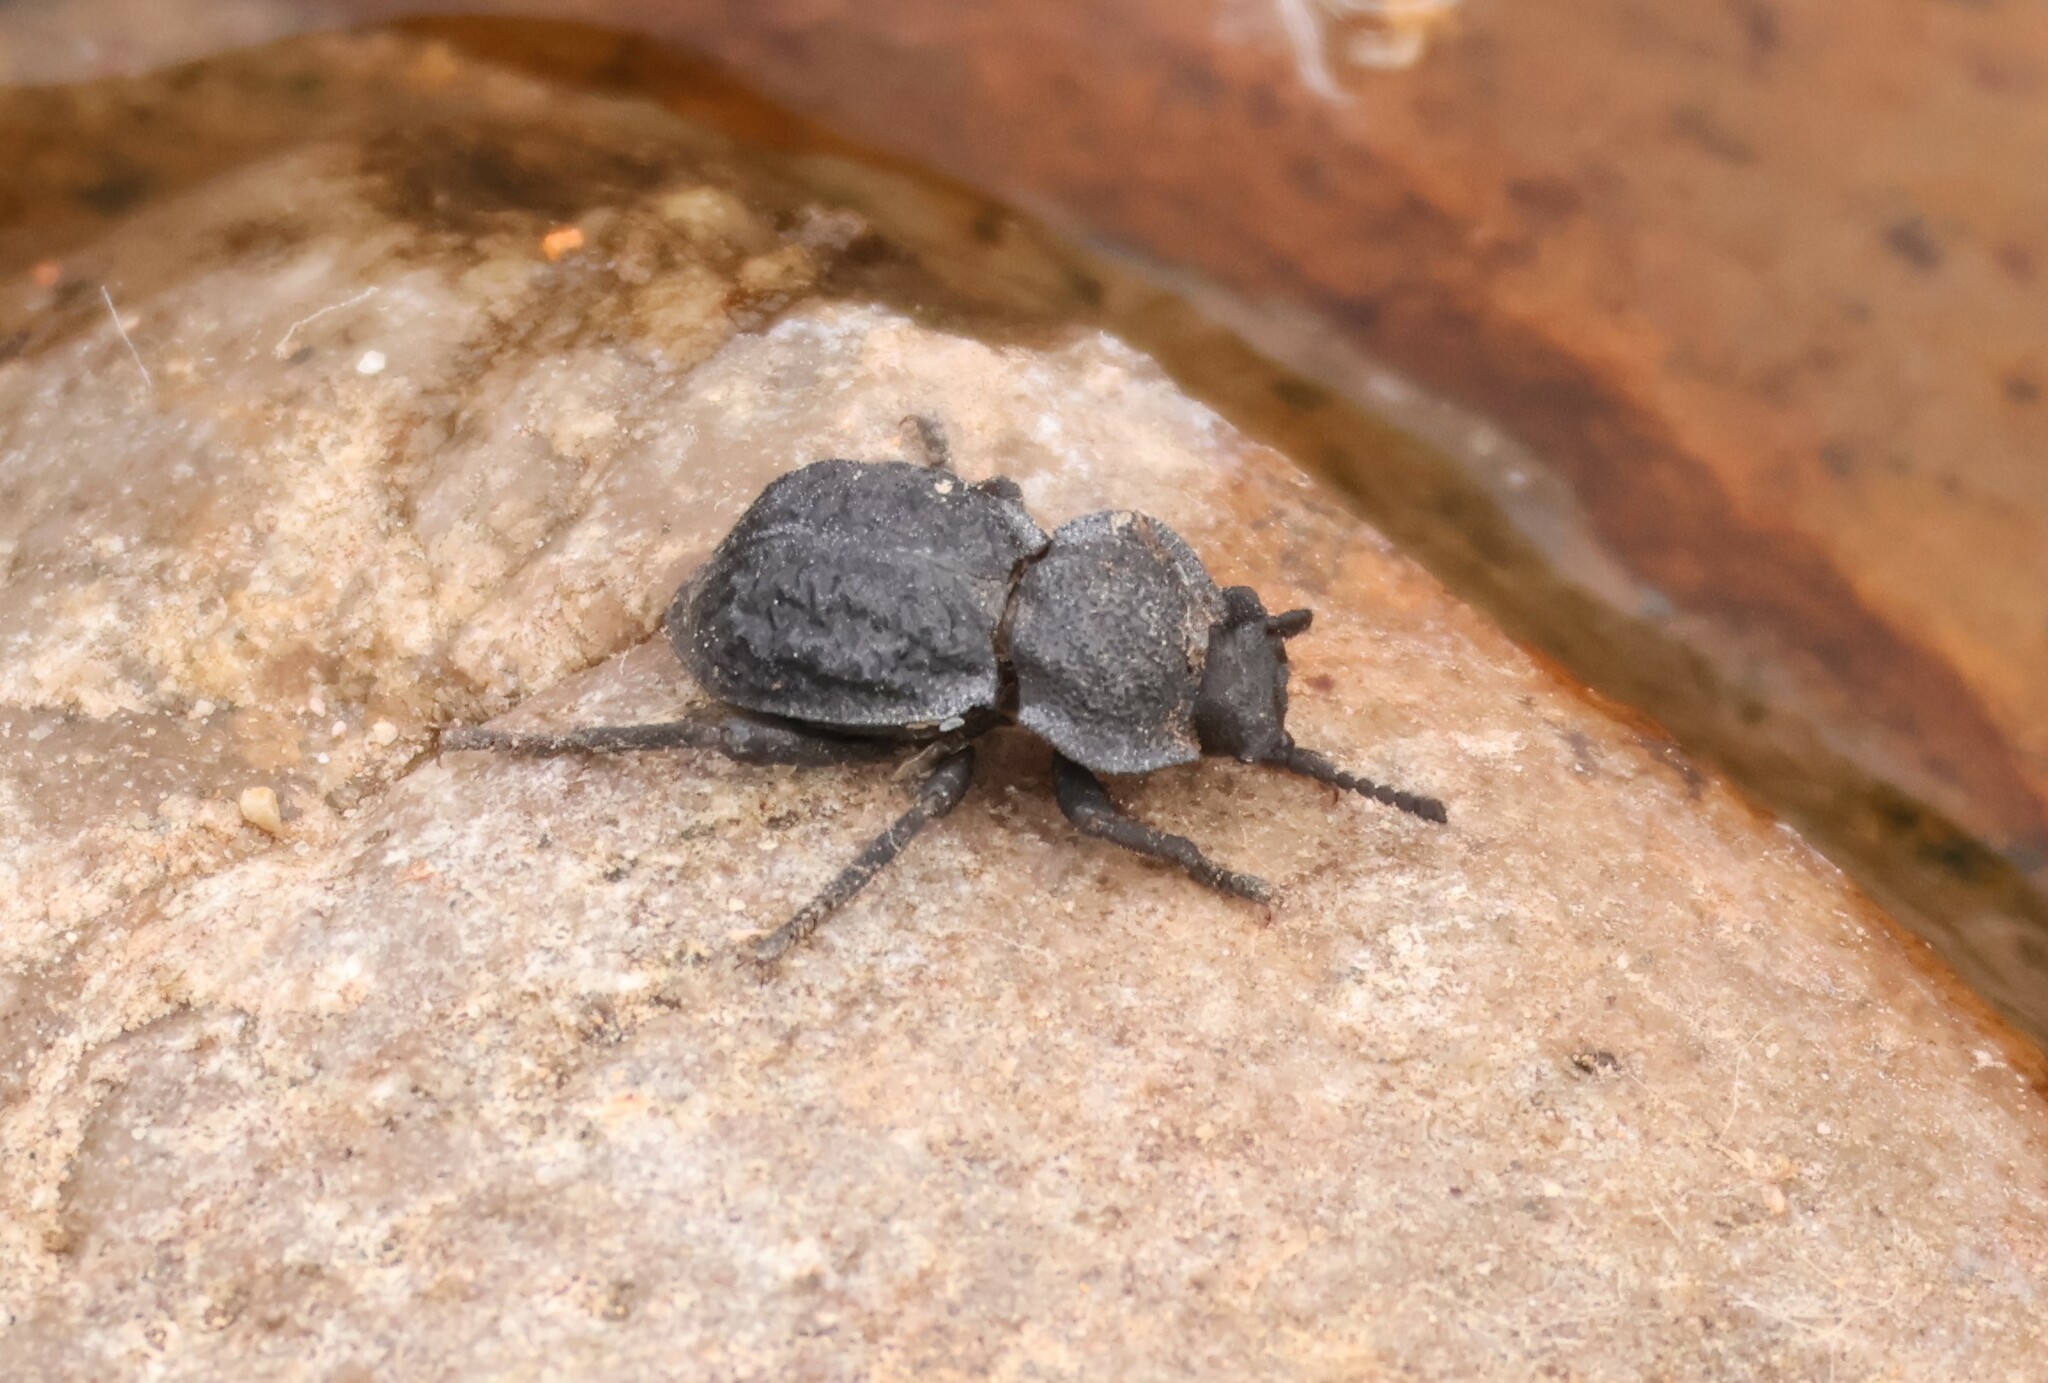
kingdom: Animalia
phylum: Arthropoda
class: Insecta
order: Coleoptera
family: Tenebrionidae
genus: Microschatia
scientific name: Microschatia inaequalis
